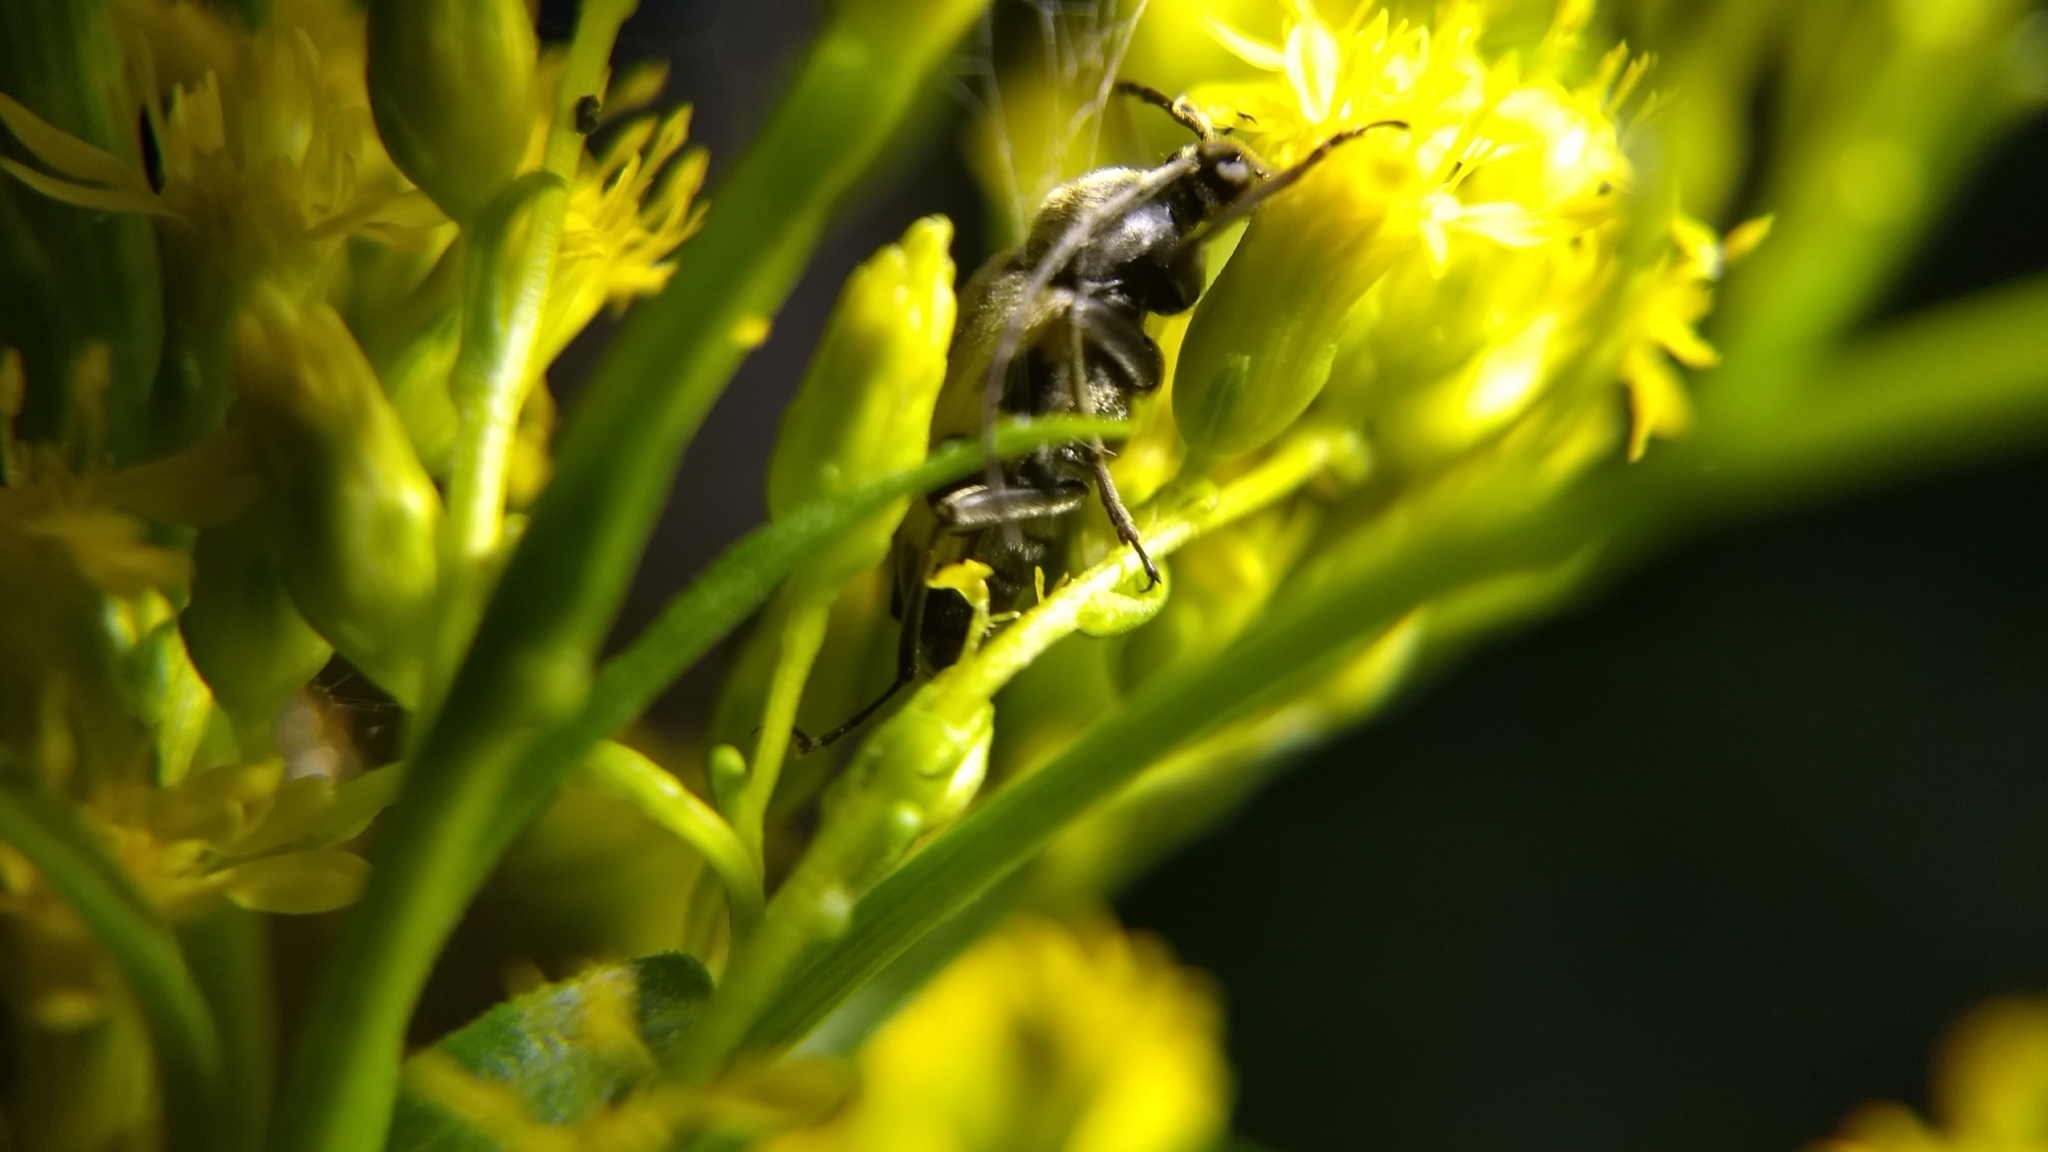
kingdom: Animalia
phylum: Arthropoda
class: Insecta
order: Coleoptera
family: Cerambycidae
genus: Judolia
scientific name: Judolia cordifera
